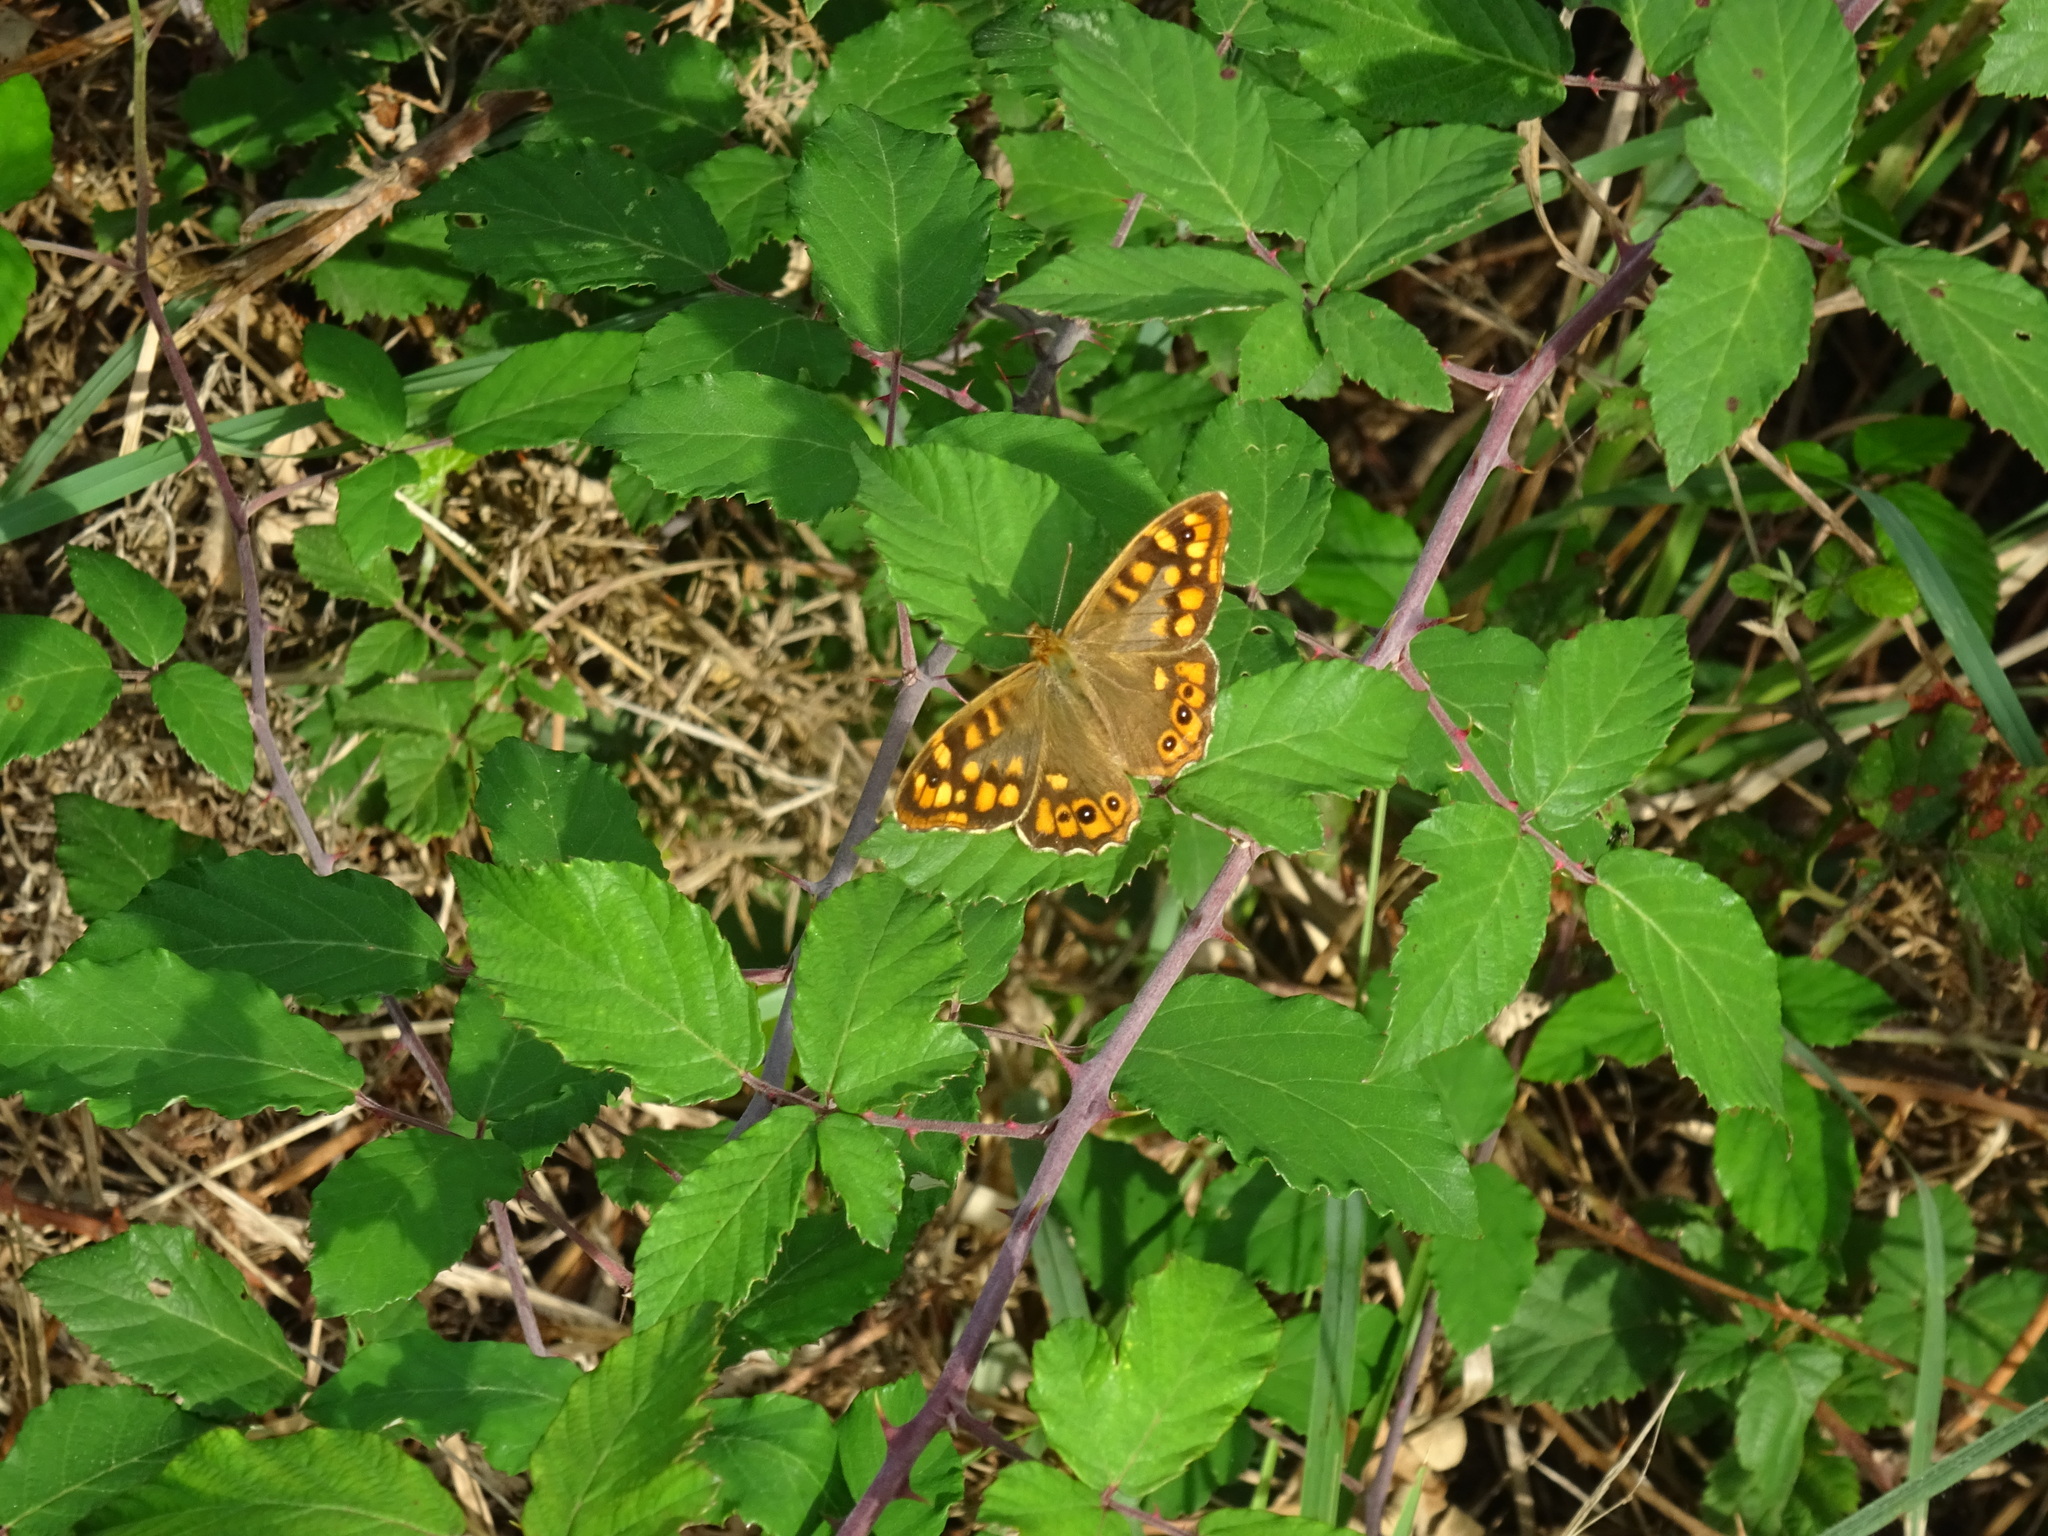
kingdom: Animalia
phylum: Arthropoda
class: Insecta
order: Lepidoptera
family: Nymphalidae
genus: Pararge
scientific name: Pararge aegeria
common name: Speckled wood
